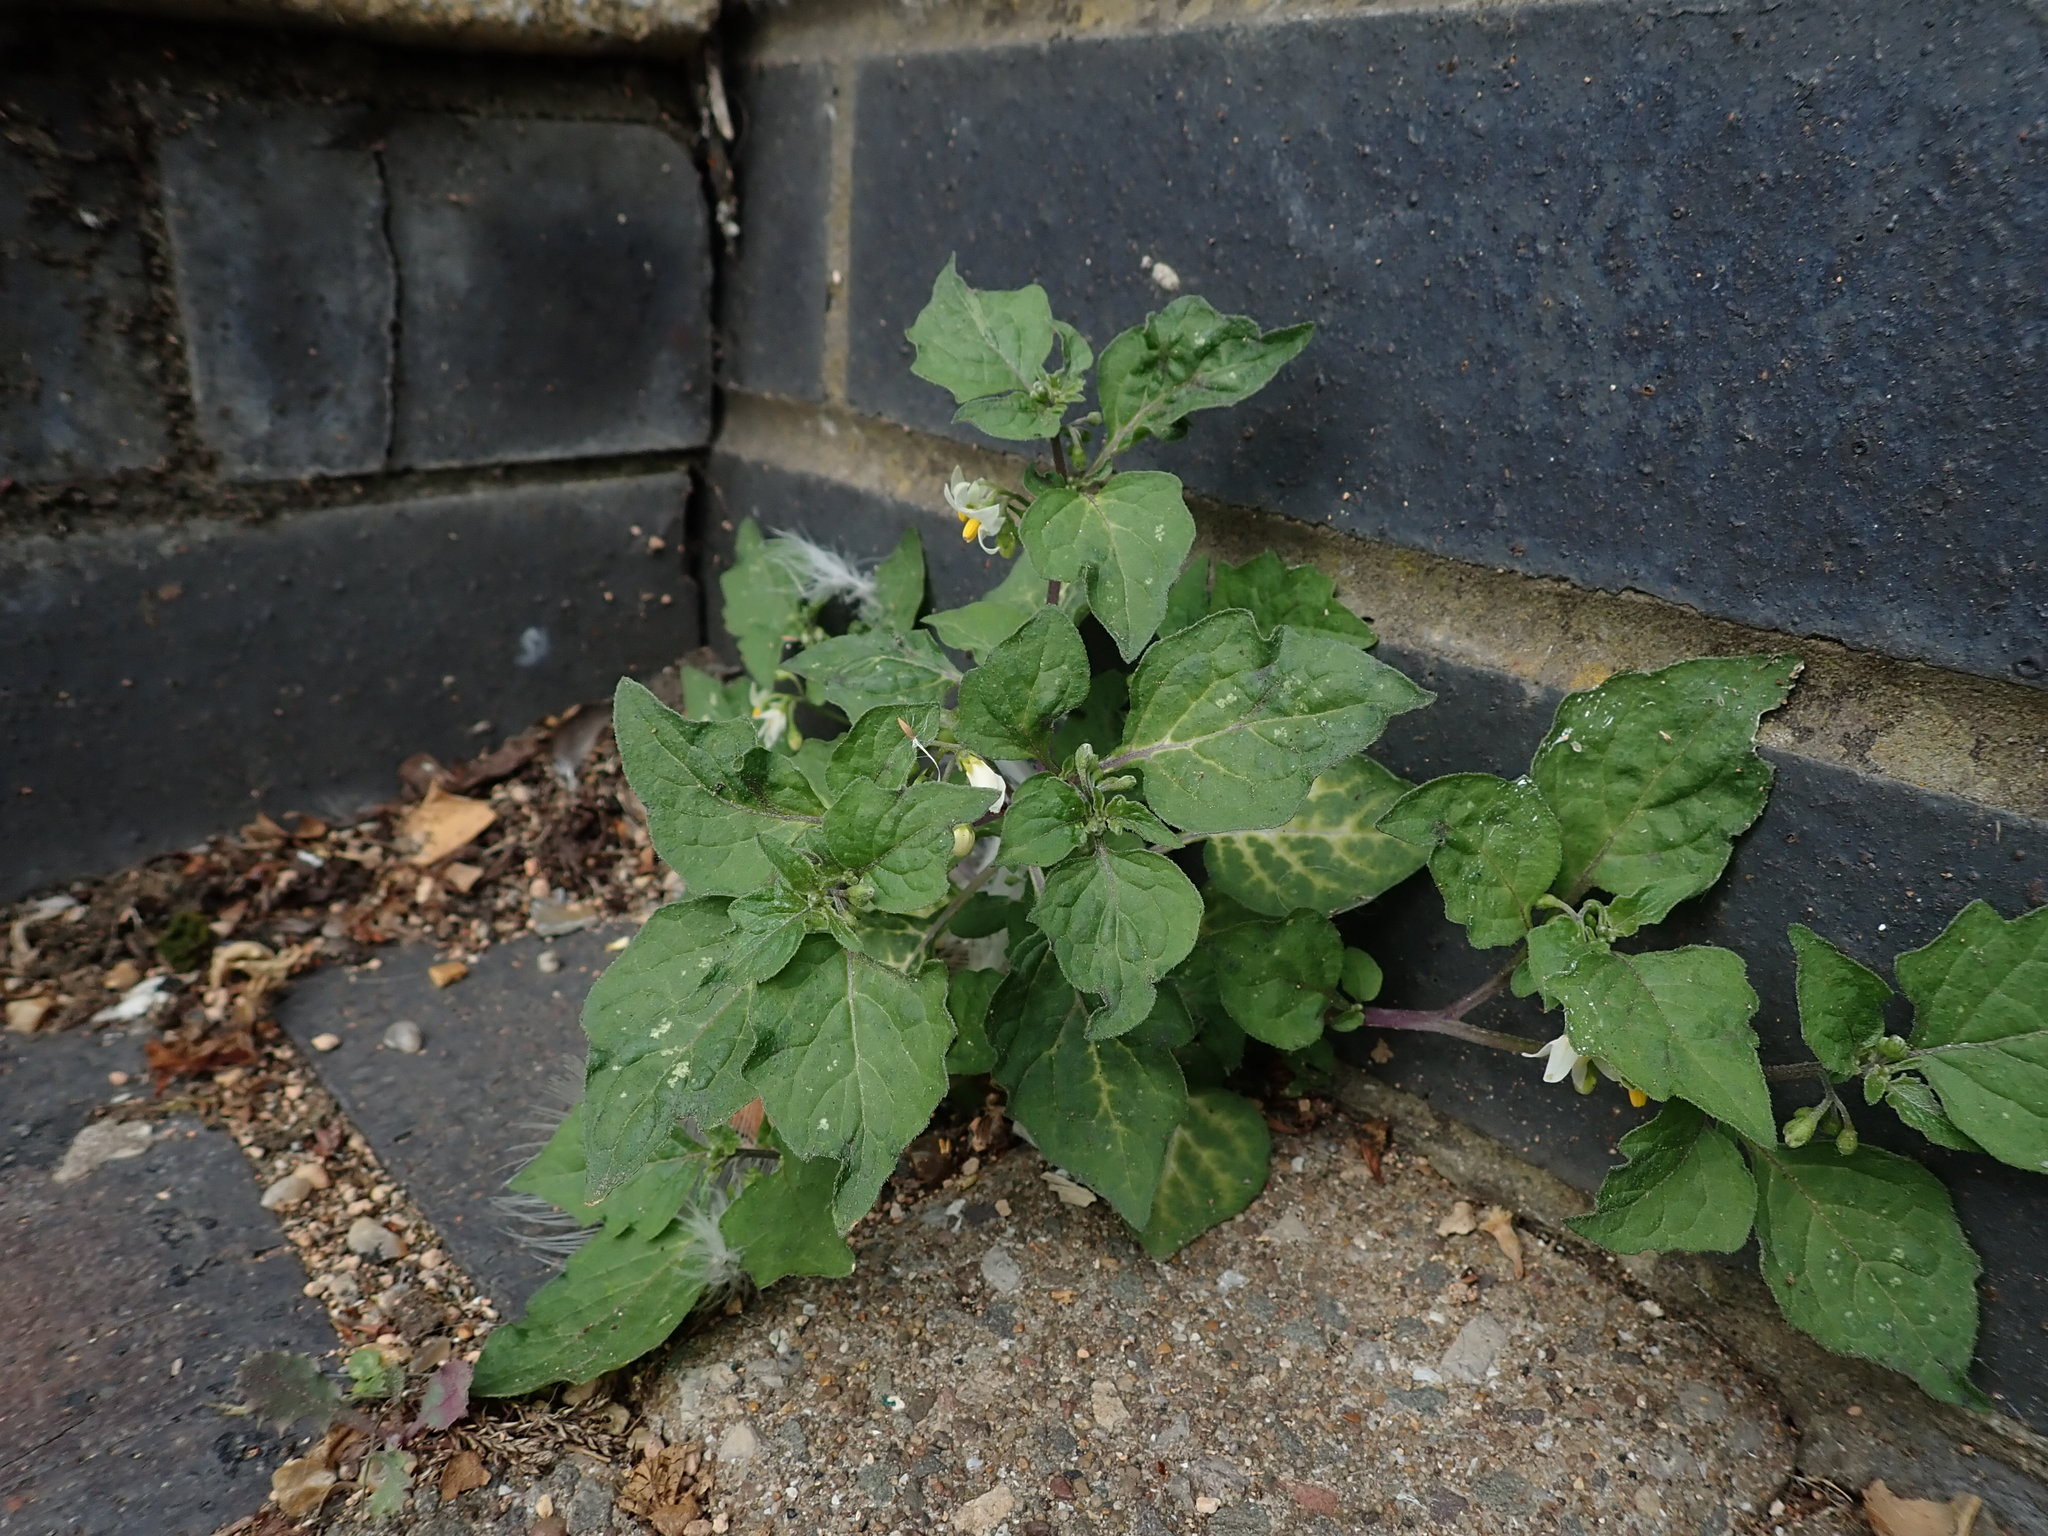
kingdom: Plantae
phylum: Tracheophyta
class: Magnoliopsida
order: Solanales
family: Solanaceae
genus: Solanum
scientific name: Solanum nigrum
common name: Black nightshade
